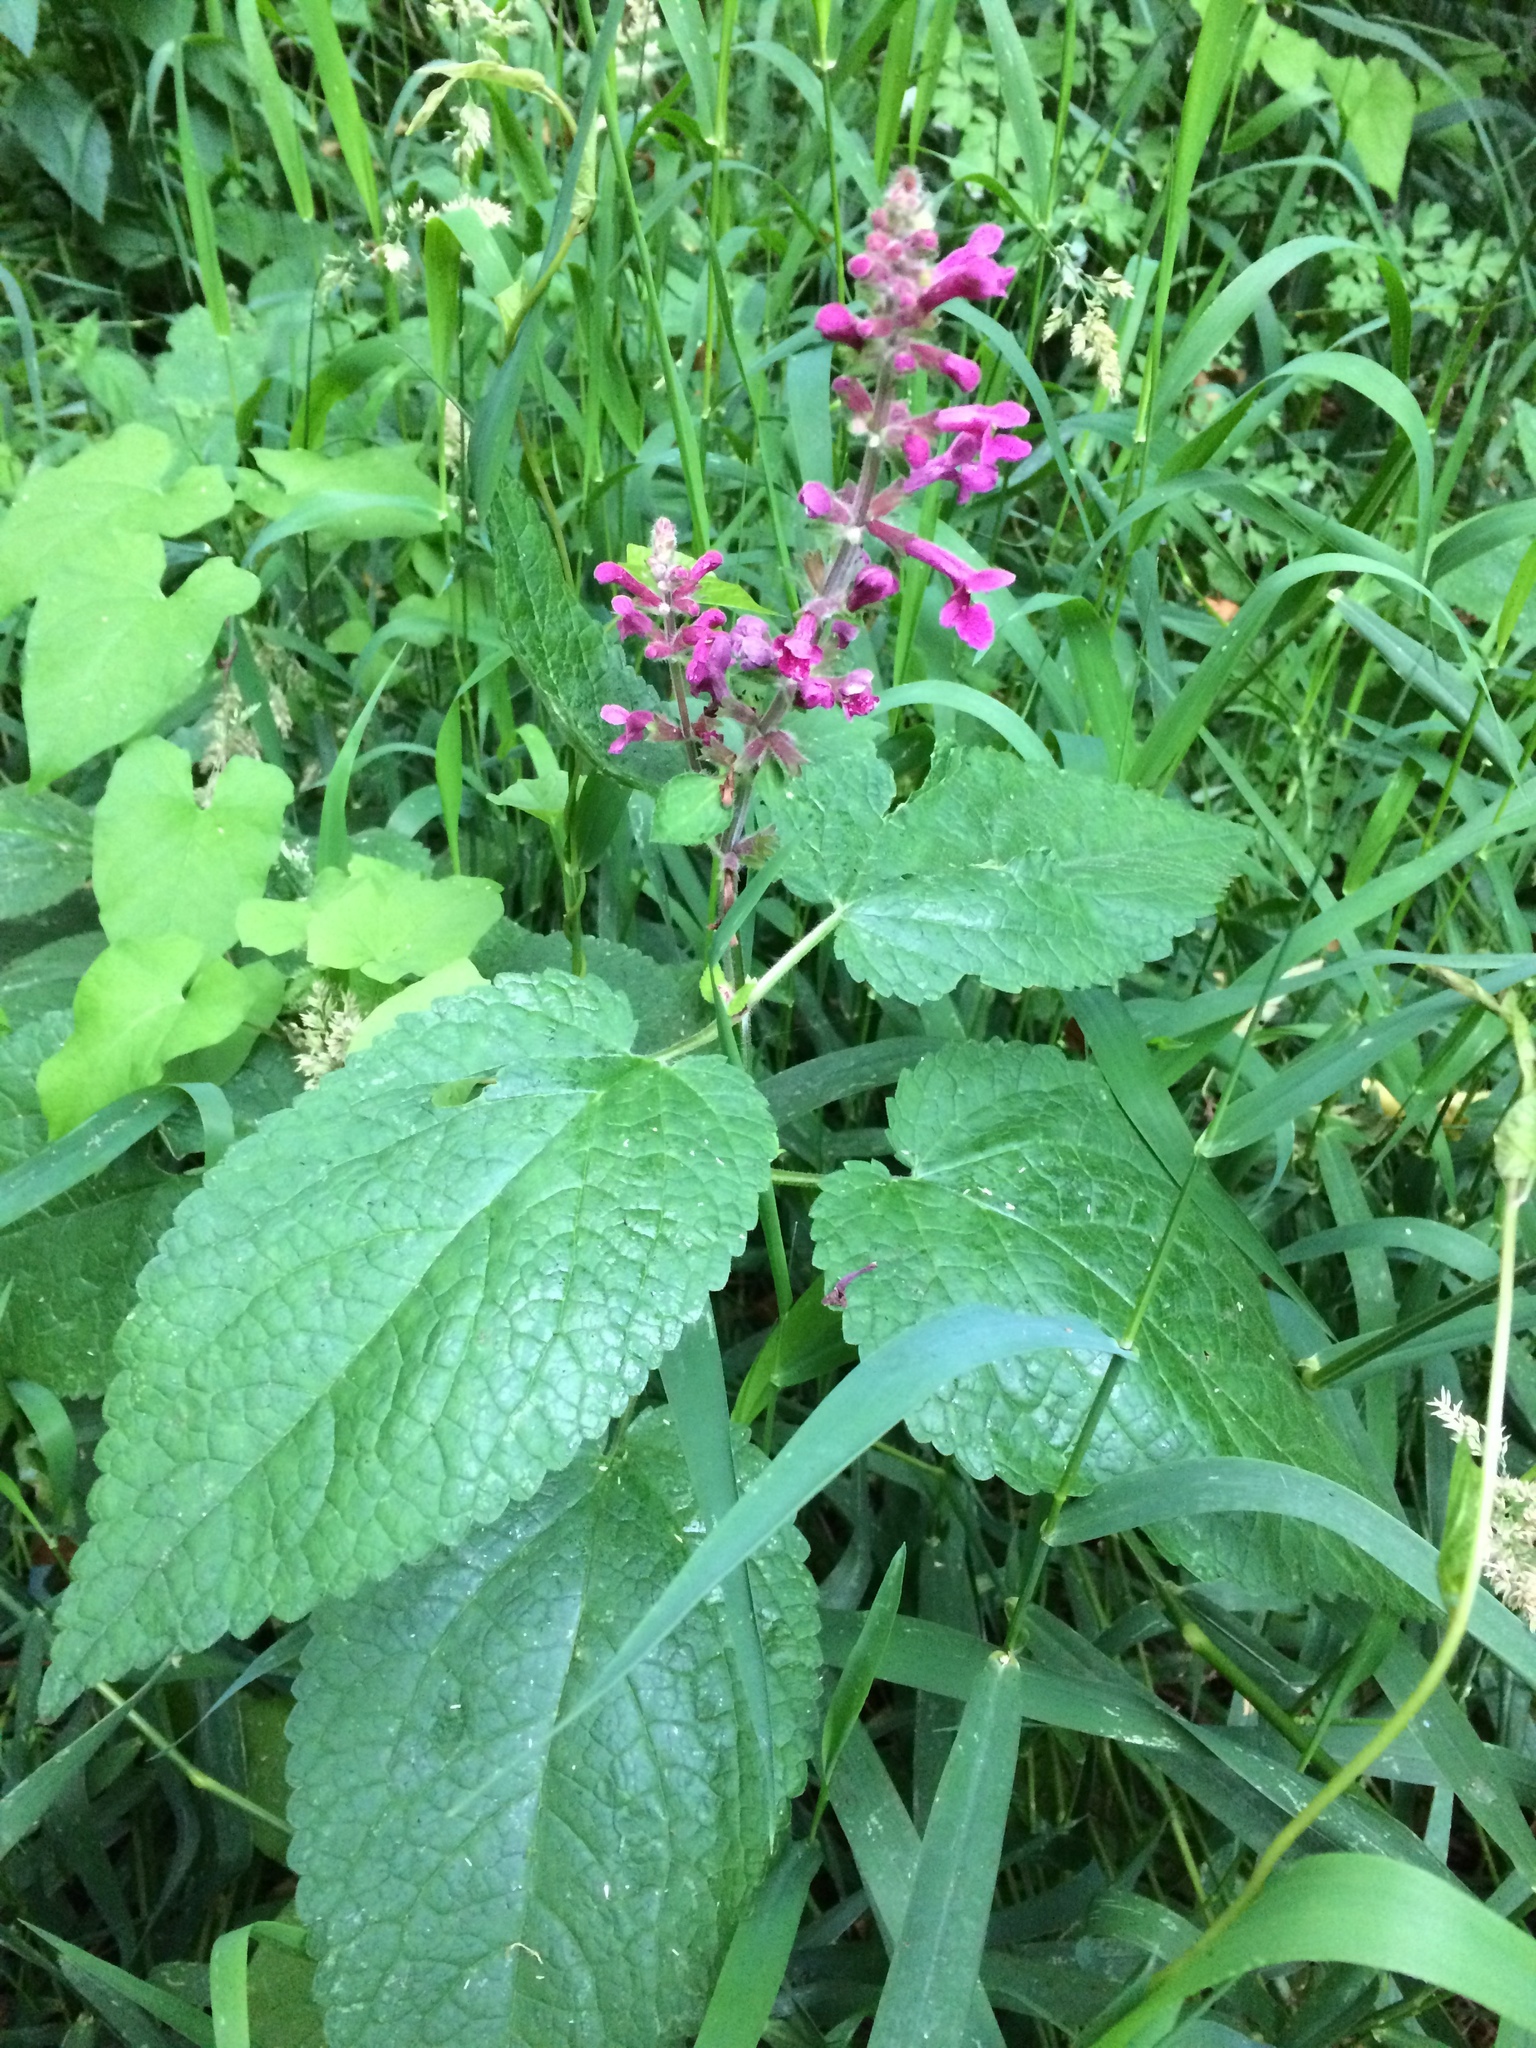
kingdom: Plantae
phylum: Tracheophyta
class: Magnoliopsida
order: Lamiales
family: Lamiaceae
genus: Stachys
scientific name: Stachys chamissonis
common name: Coastal hedge-nettle
